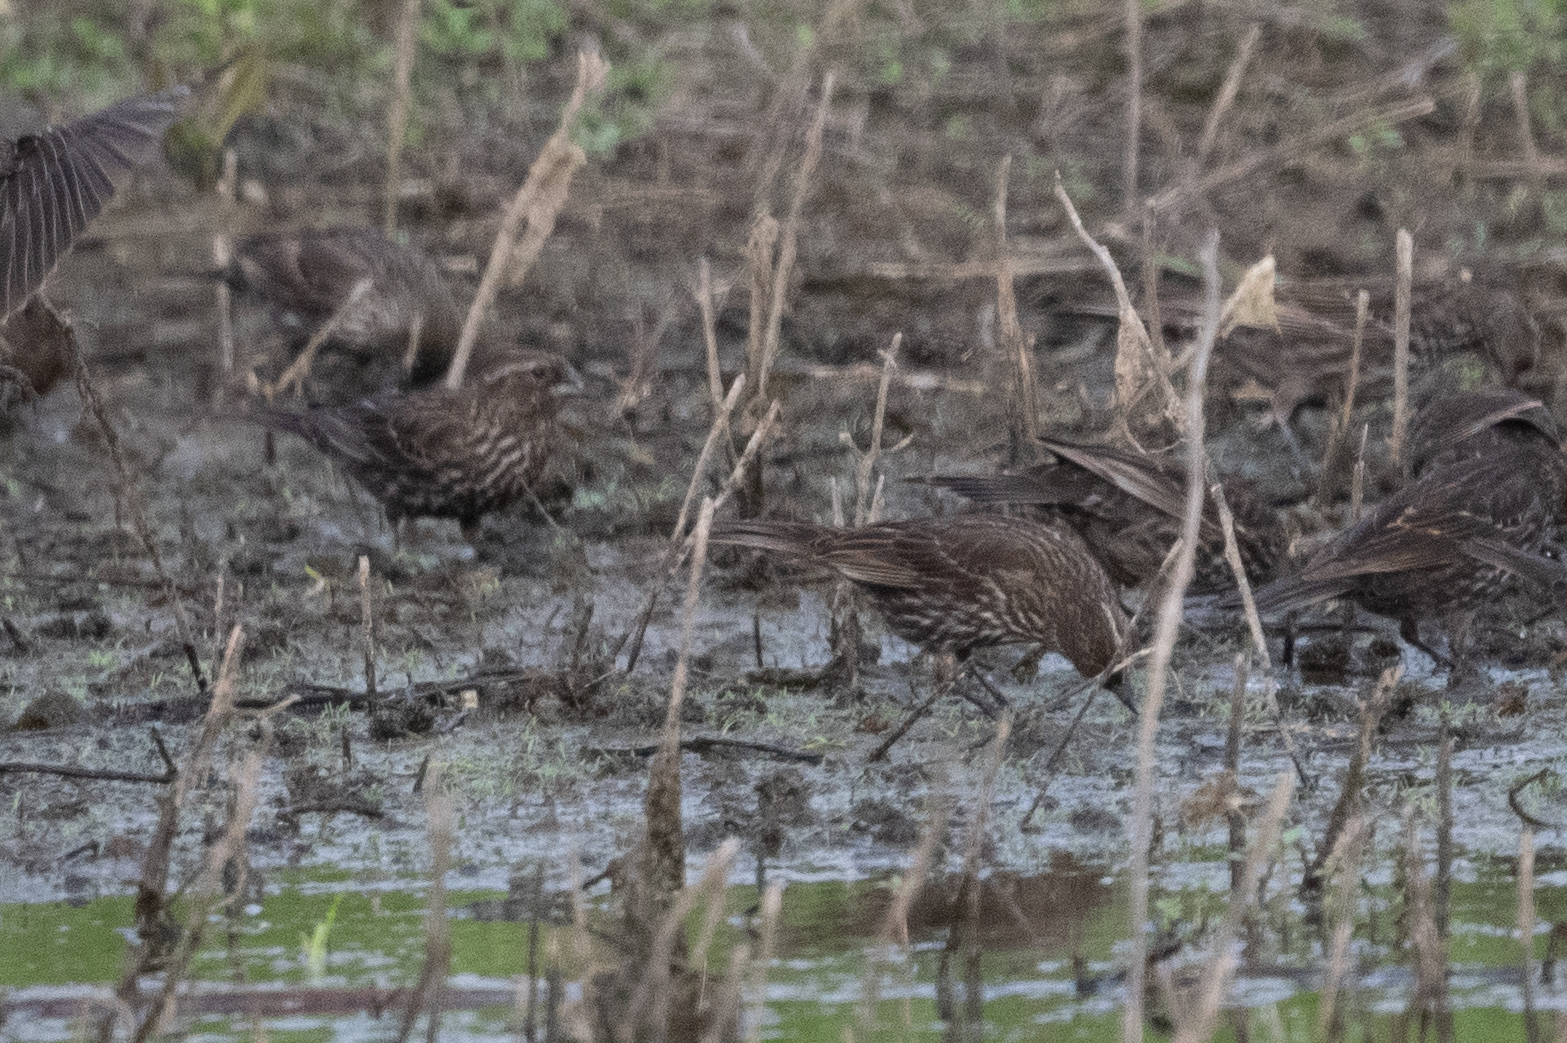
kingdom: Animalia
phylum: Chordata
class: Aves
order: Passeriformes
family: Icteridae
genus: Agelaius
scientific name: Agelaius phoeniceus
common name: Red-winged blackbird
